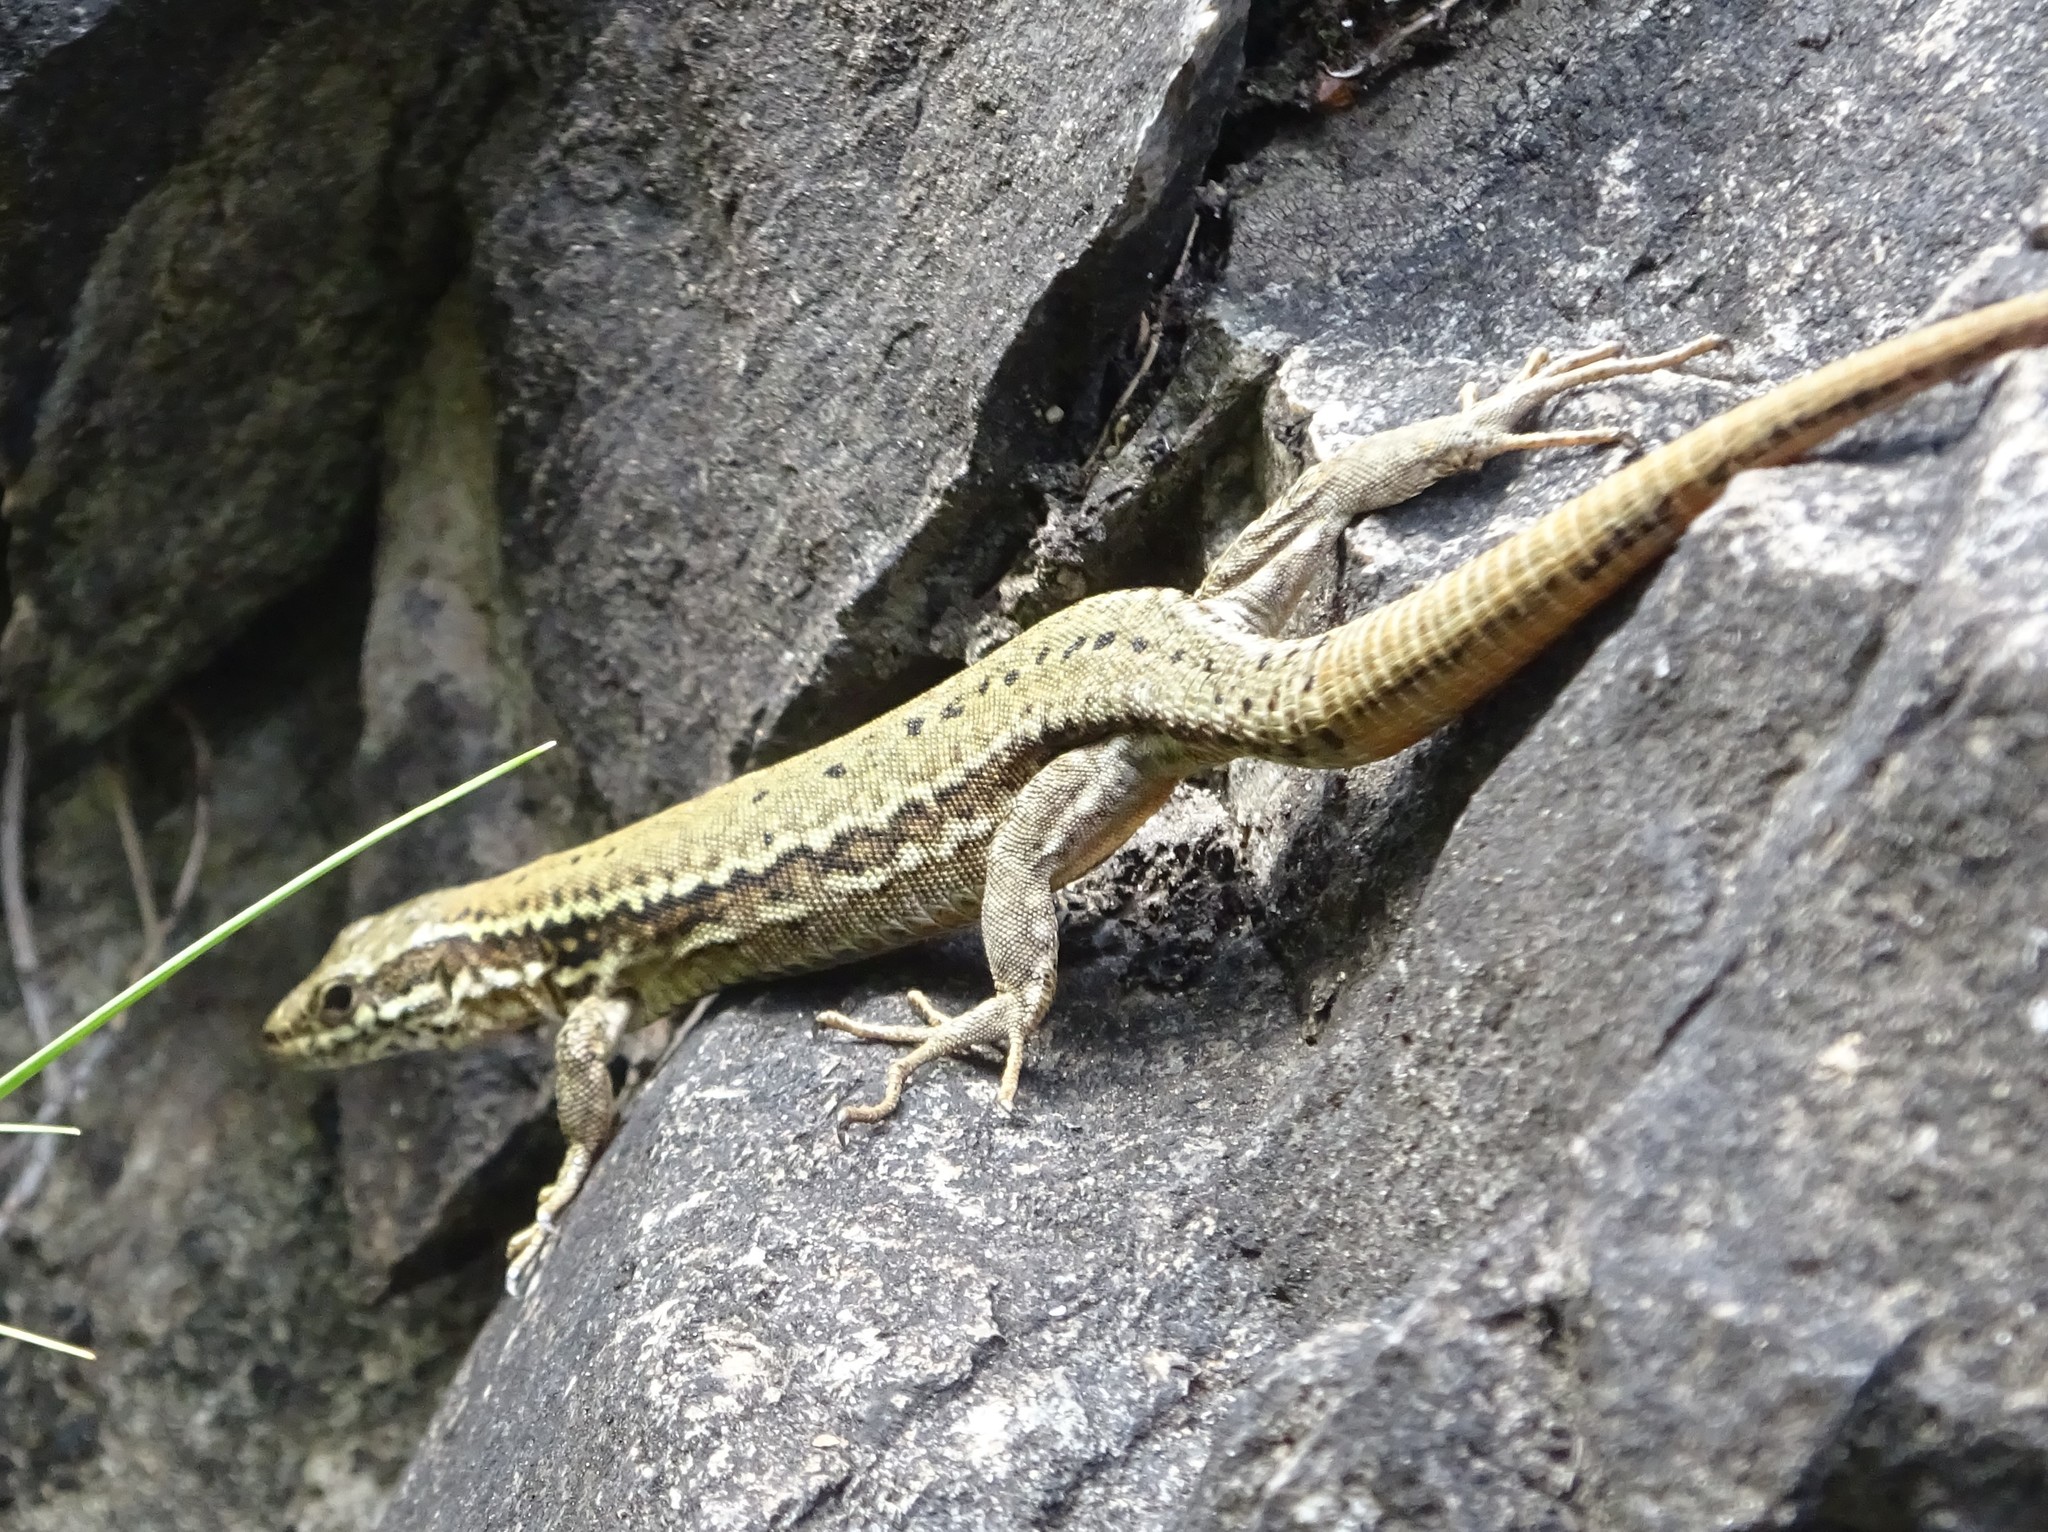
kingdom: Animalia
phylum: Chordata
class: Squamata
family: Lacertidae
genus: Podarcis
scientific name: Podarcis muralis
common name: Common wall lizard
